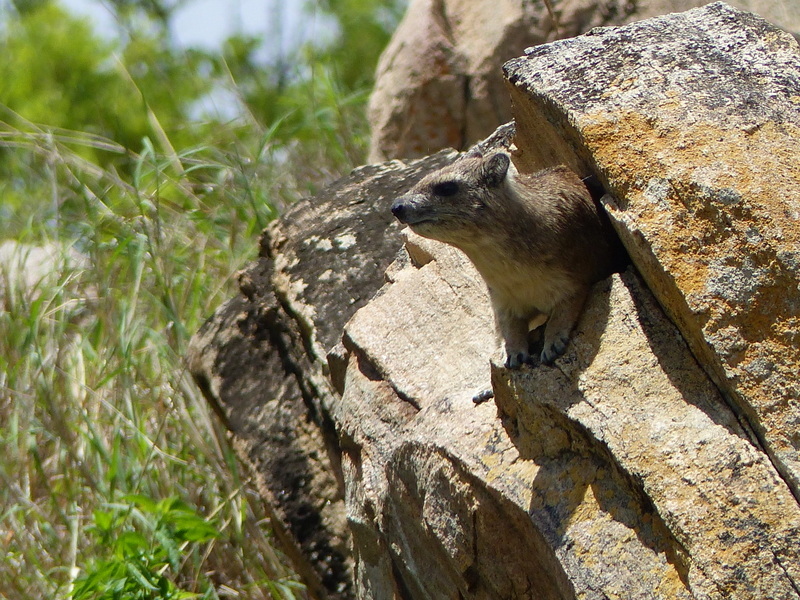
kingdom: Animalia
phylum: Chordata
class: Mammalia
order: Hyracoidea
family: Procaviidae
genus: Heterohyrax
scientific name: Heterohyrax brucei
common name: Bush hyrax
